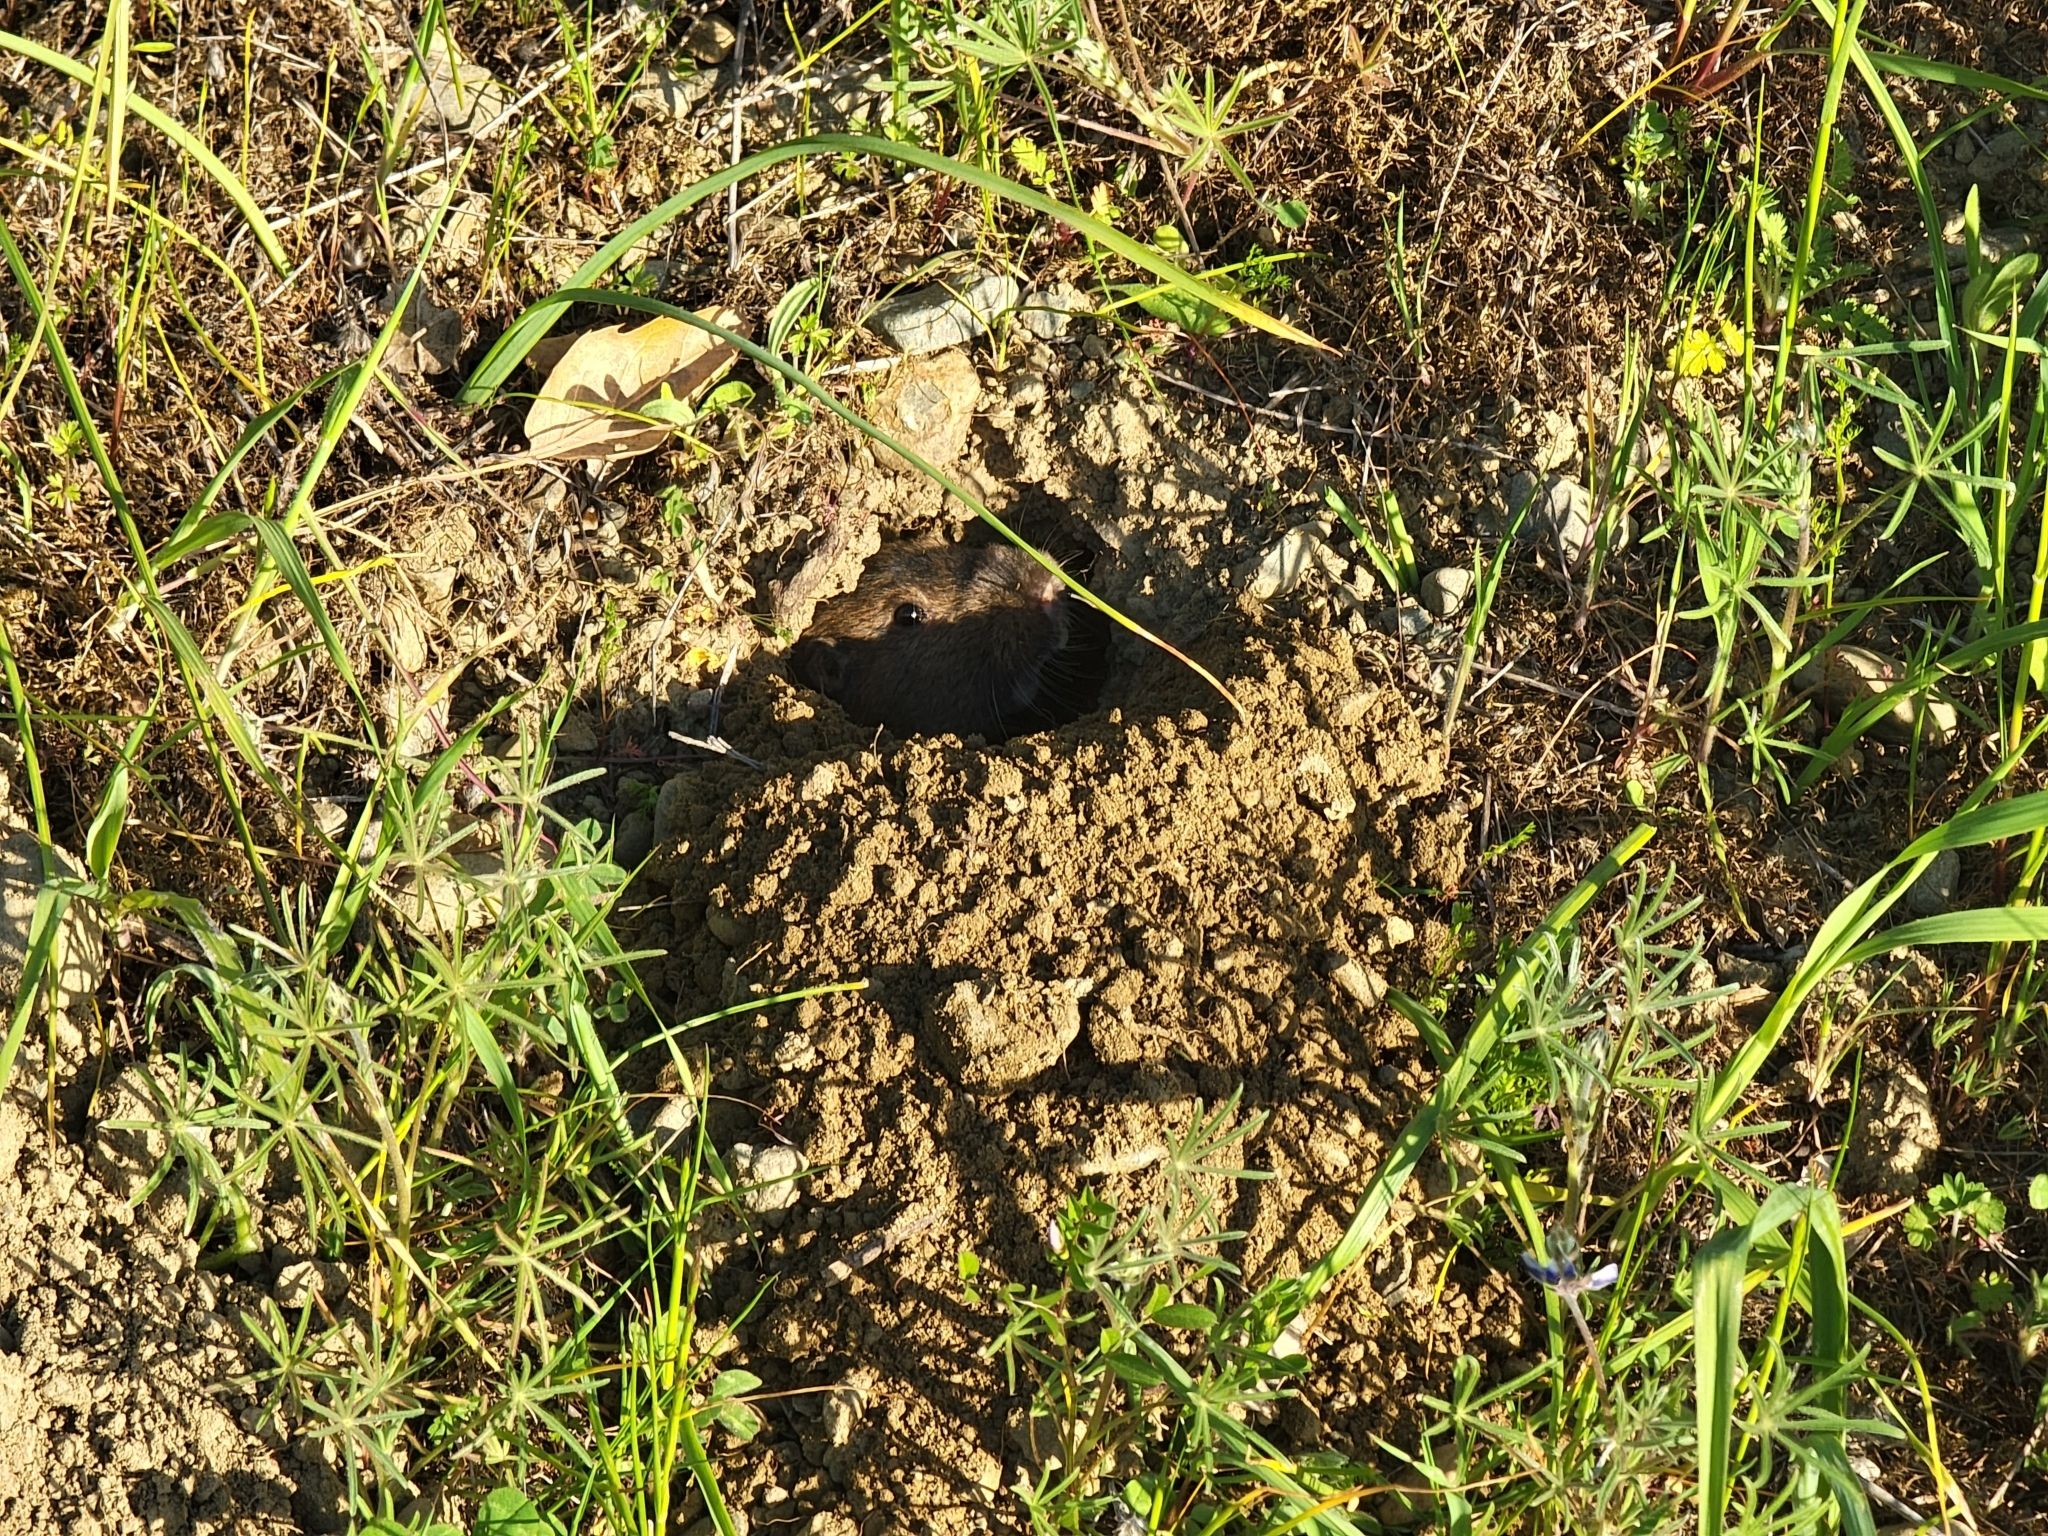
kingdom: Animalia
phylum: Chordata
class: Mammalia
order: Rodentia
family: Geomyidae
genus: Thomomys
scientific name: Thomomys bottae
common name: Botta's pocket gopher
